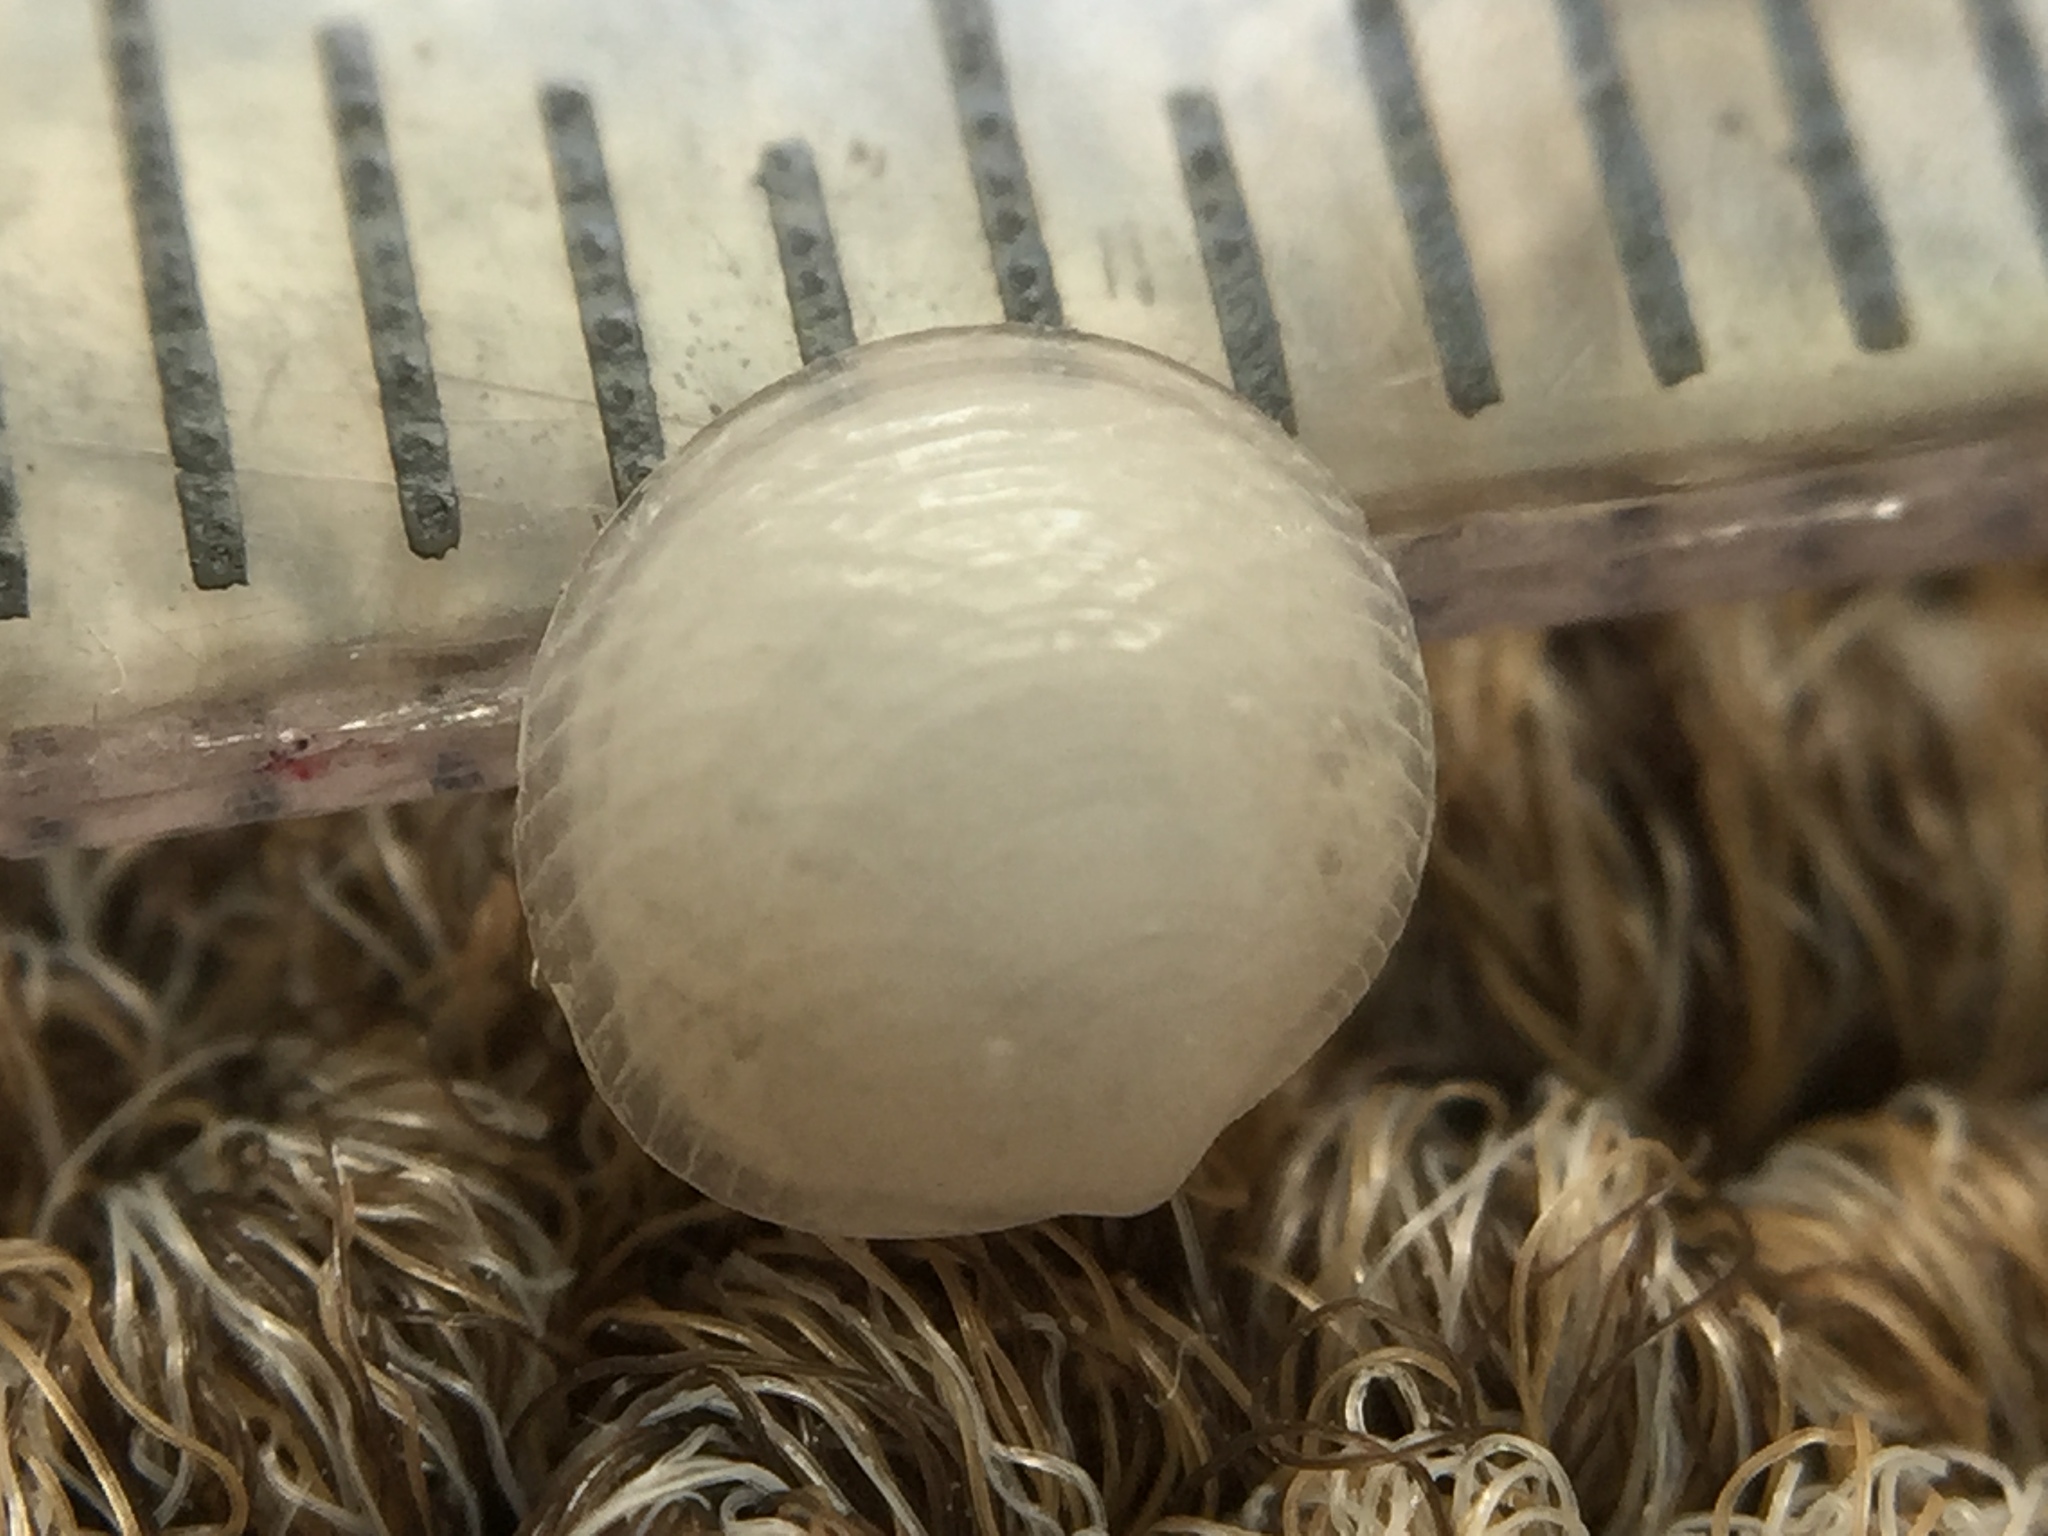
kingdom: Animalia
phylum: Mollusca
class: Bivalvia
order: Lucinida
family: Lucinidae
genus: Divalucina
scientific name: Divalucina cumingi
